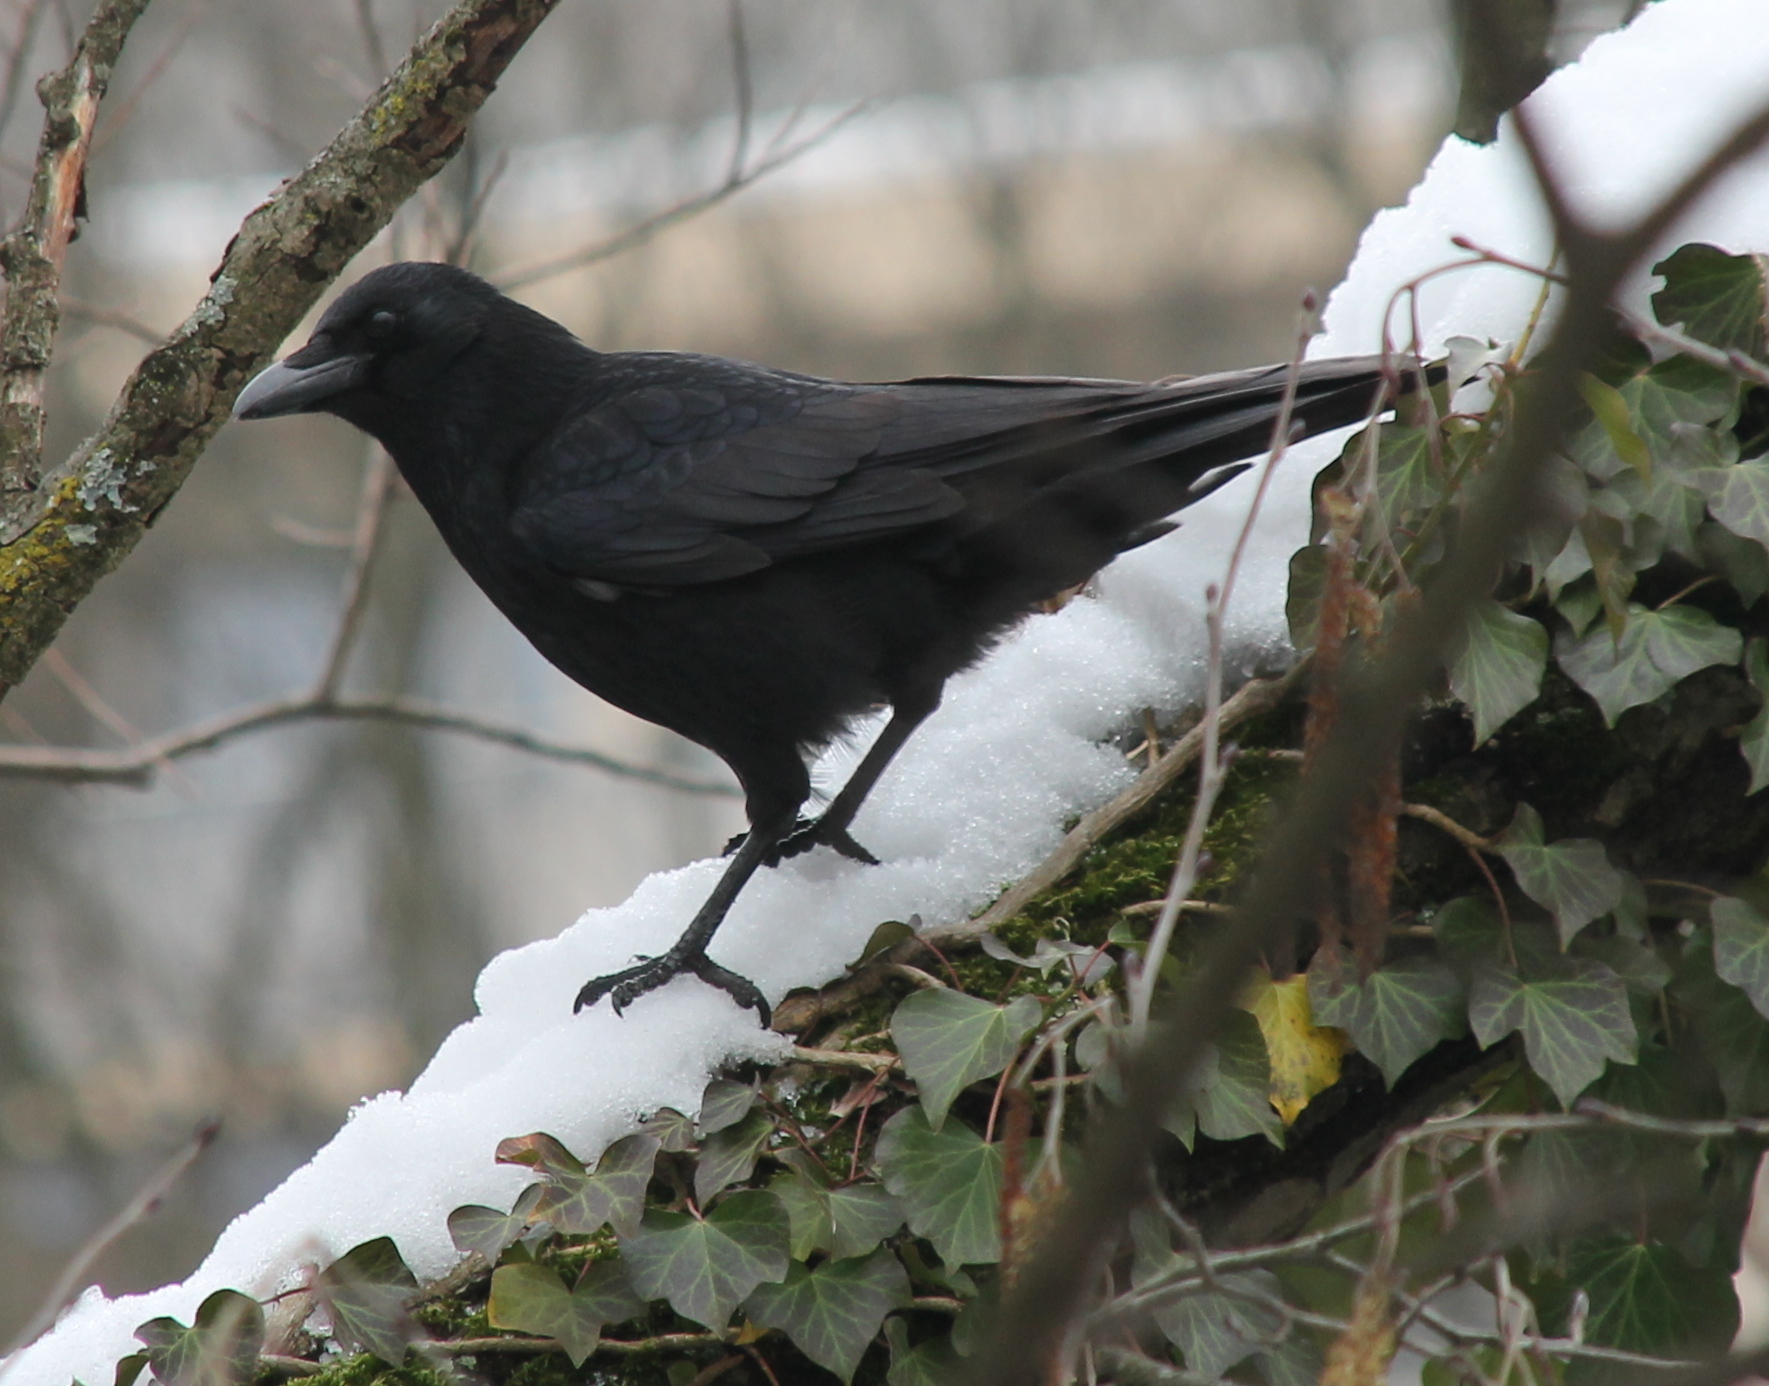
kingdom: Animalia
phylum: Chordata
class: Aves
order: Passeriformes
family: Corvidae
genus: Corvus
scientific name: Corvus corone
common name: Carrion crow
